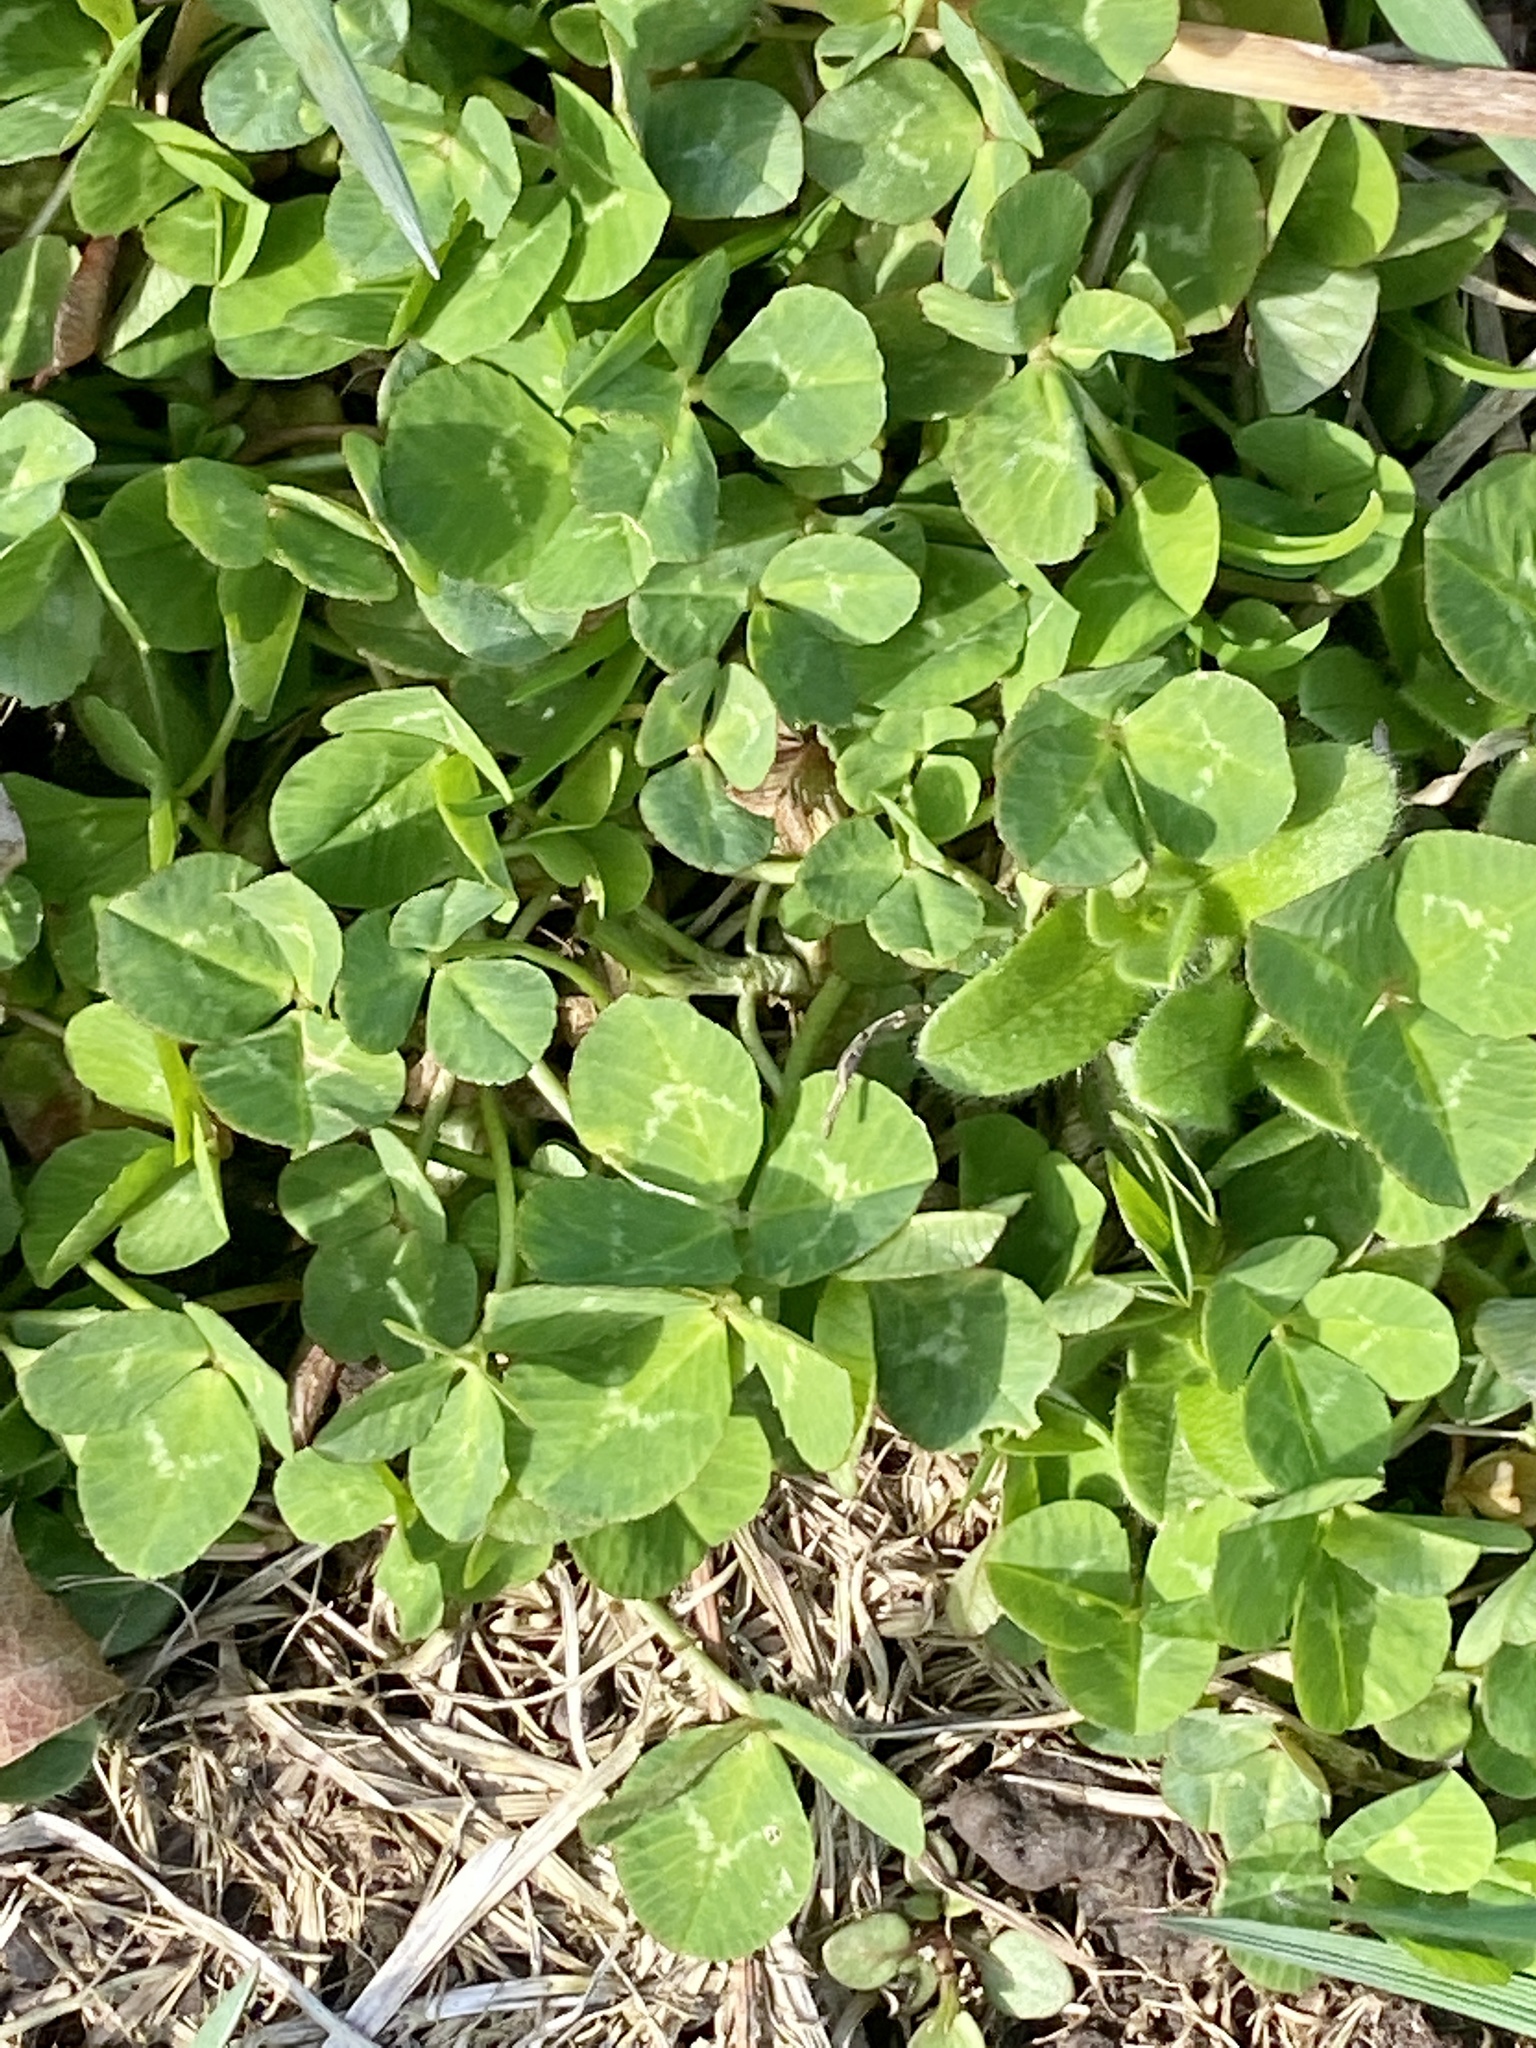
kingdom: Plantae
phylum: Tracheophyta
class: Magnoliopsida
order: Fabales
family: Fabaceae
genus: Trifolium
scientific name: Trifolium repens
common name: White clover
